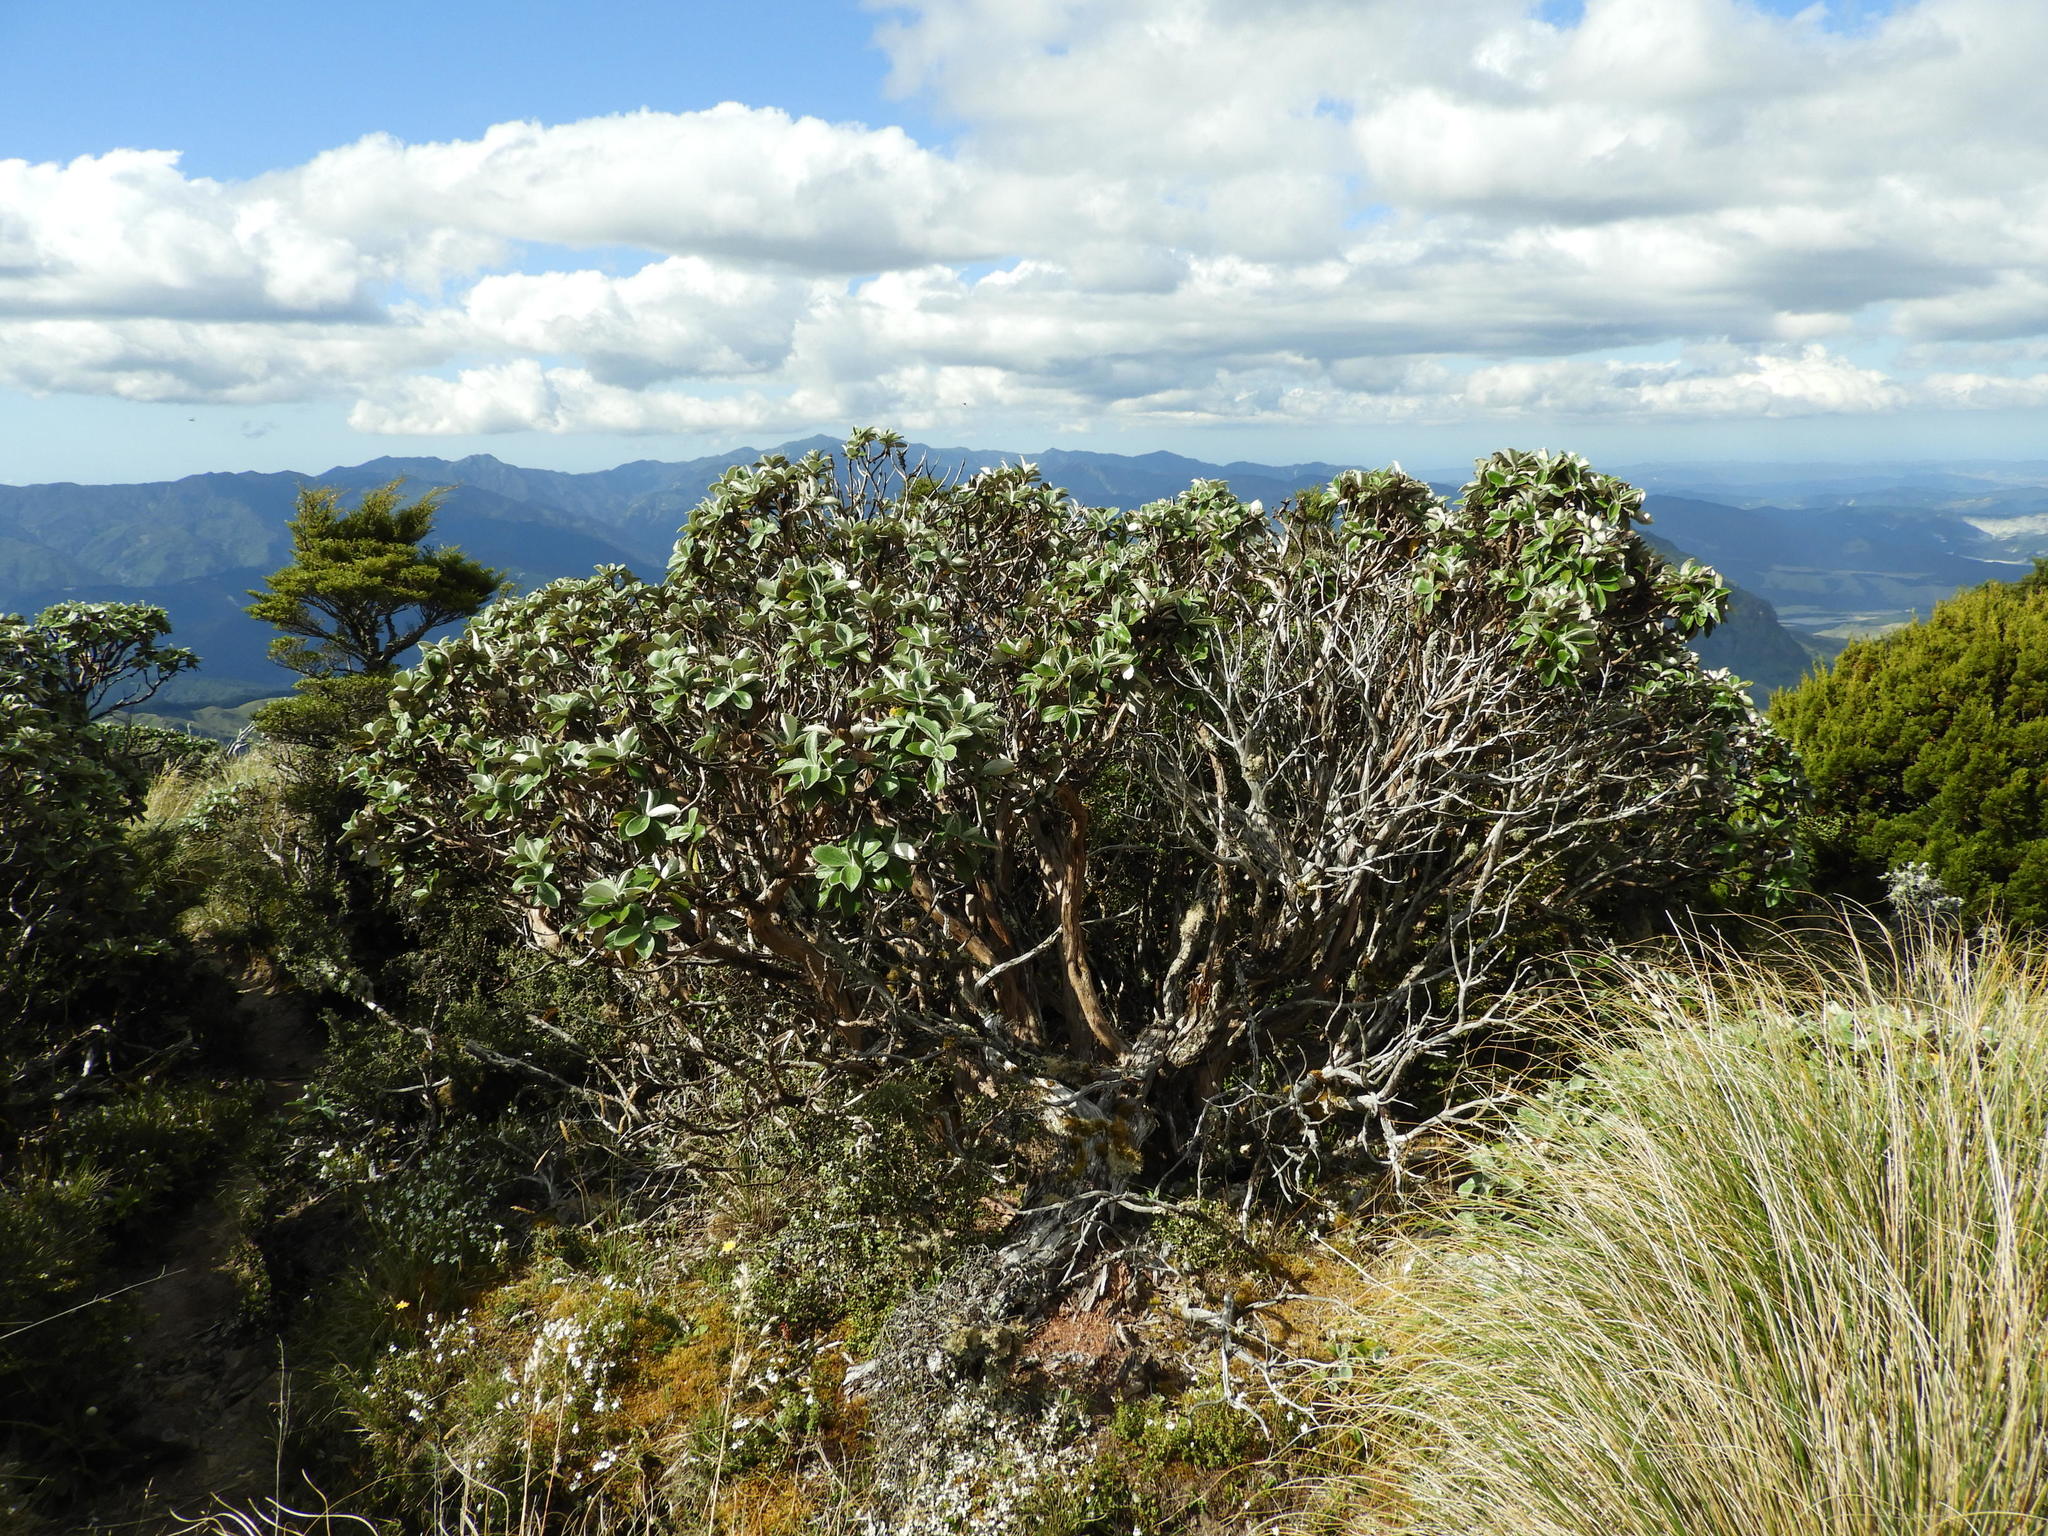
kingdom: Plantae
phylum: Tracheophyta
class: Magnoliopsida
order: Asterales
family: Asteraceae
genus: Macrolearia
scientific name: Macrolearia colensoi
